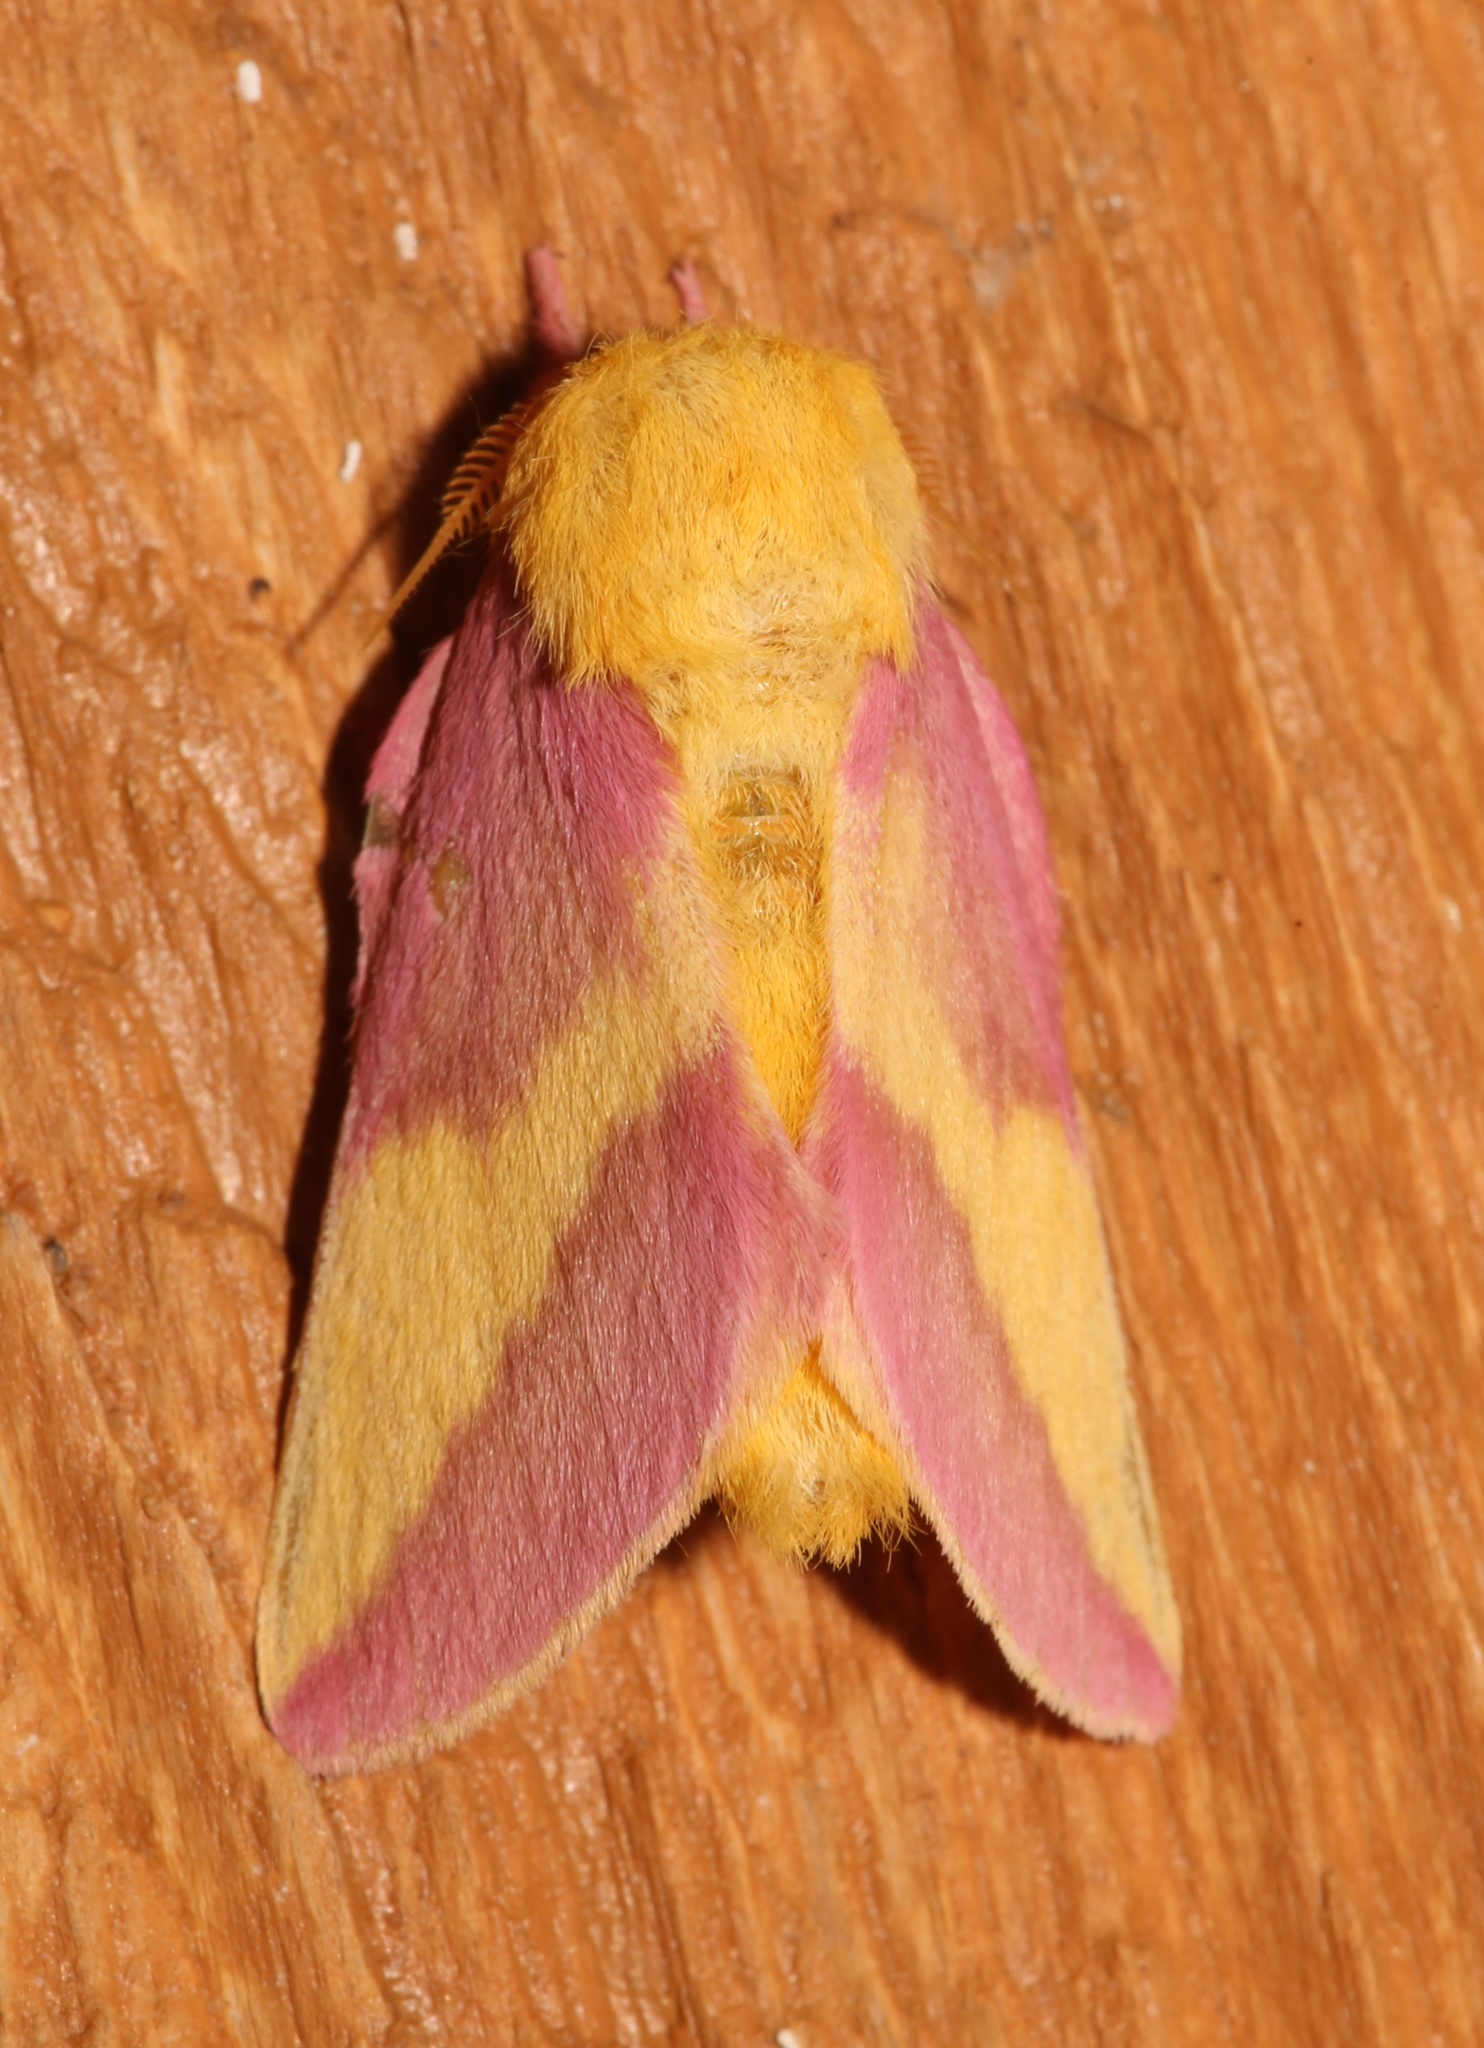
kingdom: Animalia
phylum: Arthropoda
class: Insecta
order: Lepidoptera
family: Saturniidae
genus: Dryocampa
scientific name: Dryocampa rubicunda
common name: Rosy maple moth
